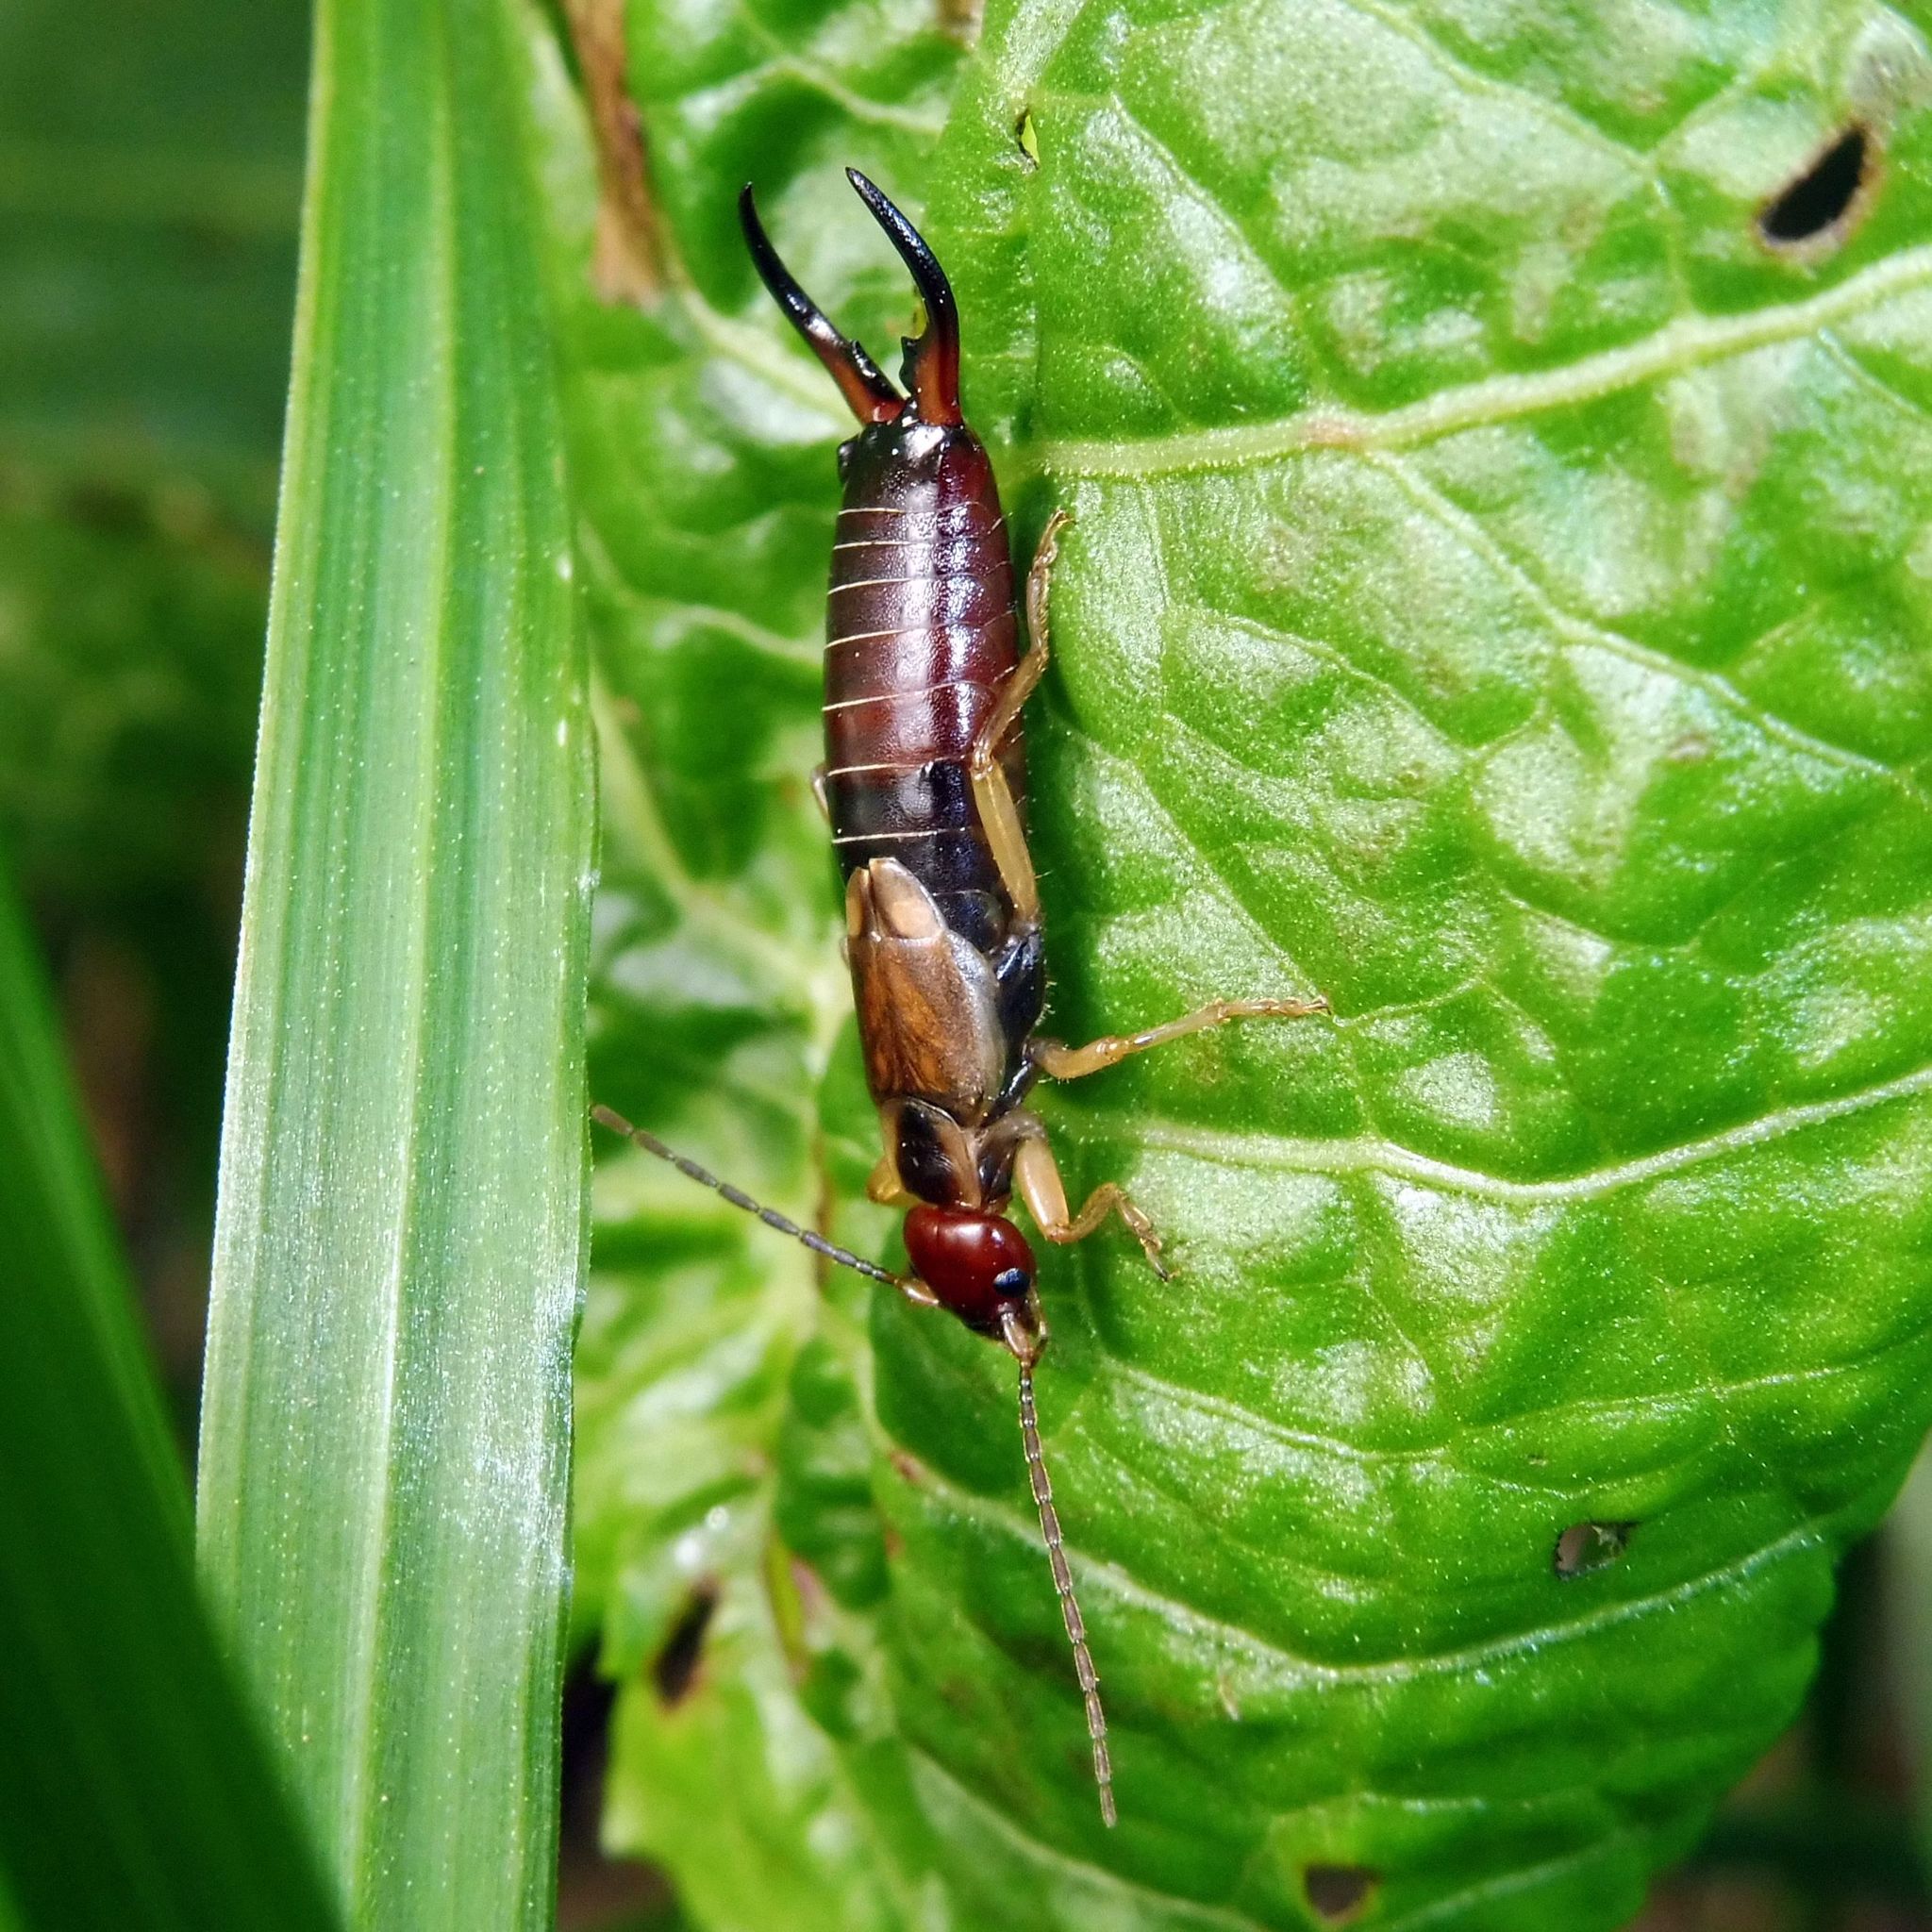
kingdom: Animalia
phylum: Arthropoda
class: Insecta
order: Dermaptera
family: Forficulidae
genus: Forficula
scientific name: Forficula
